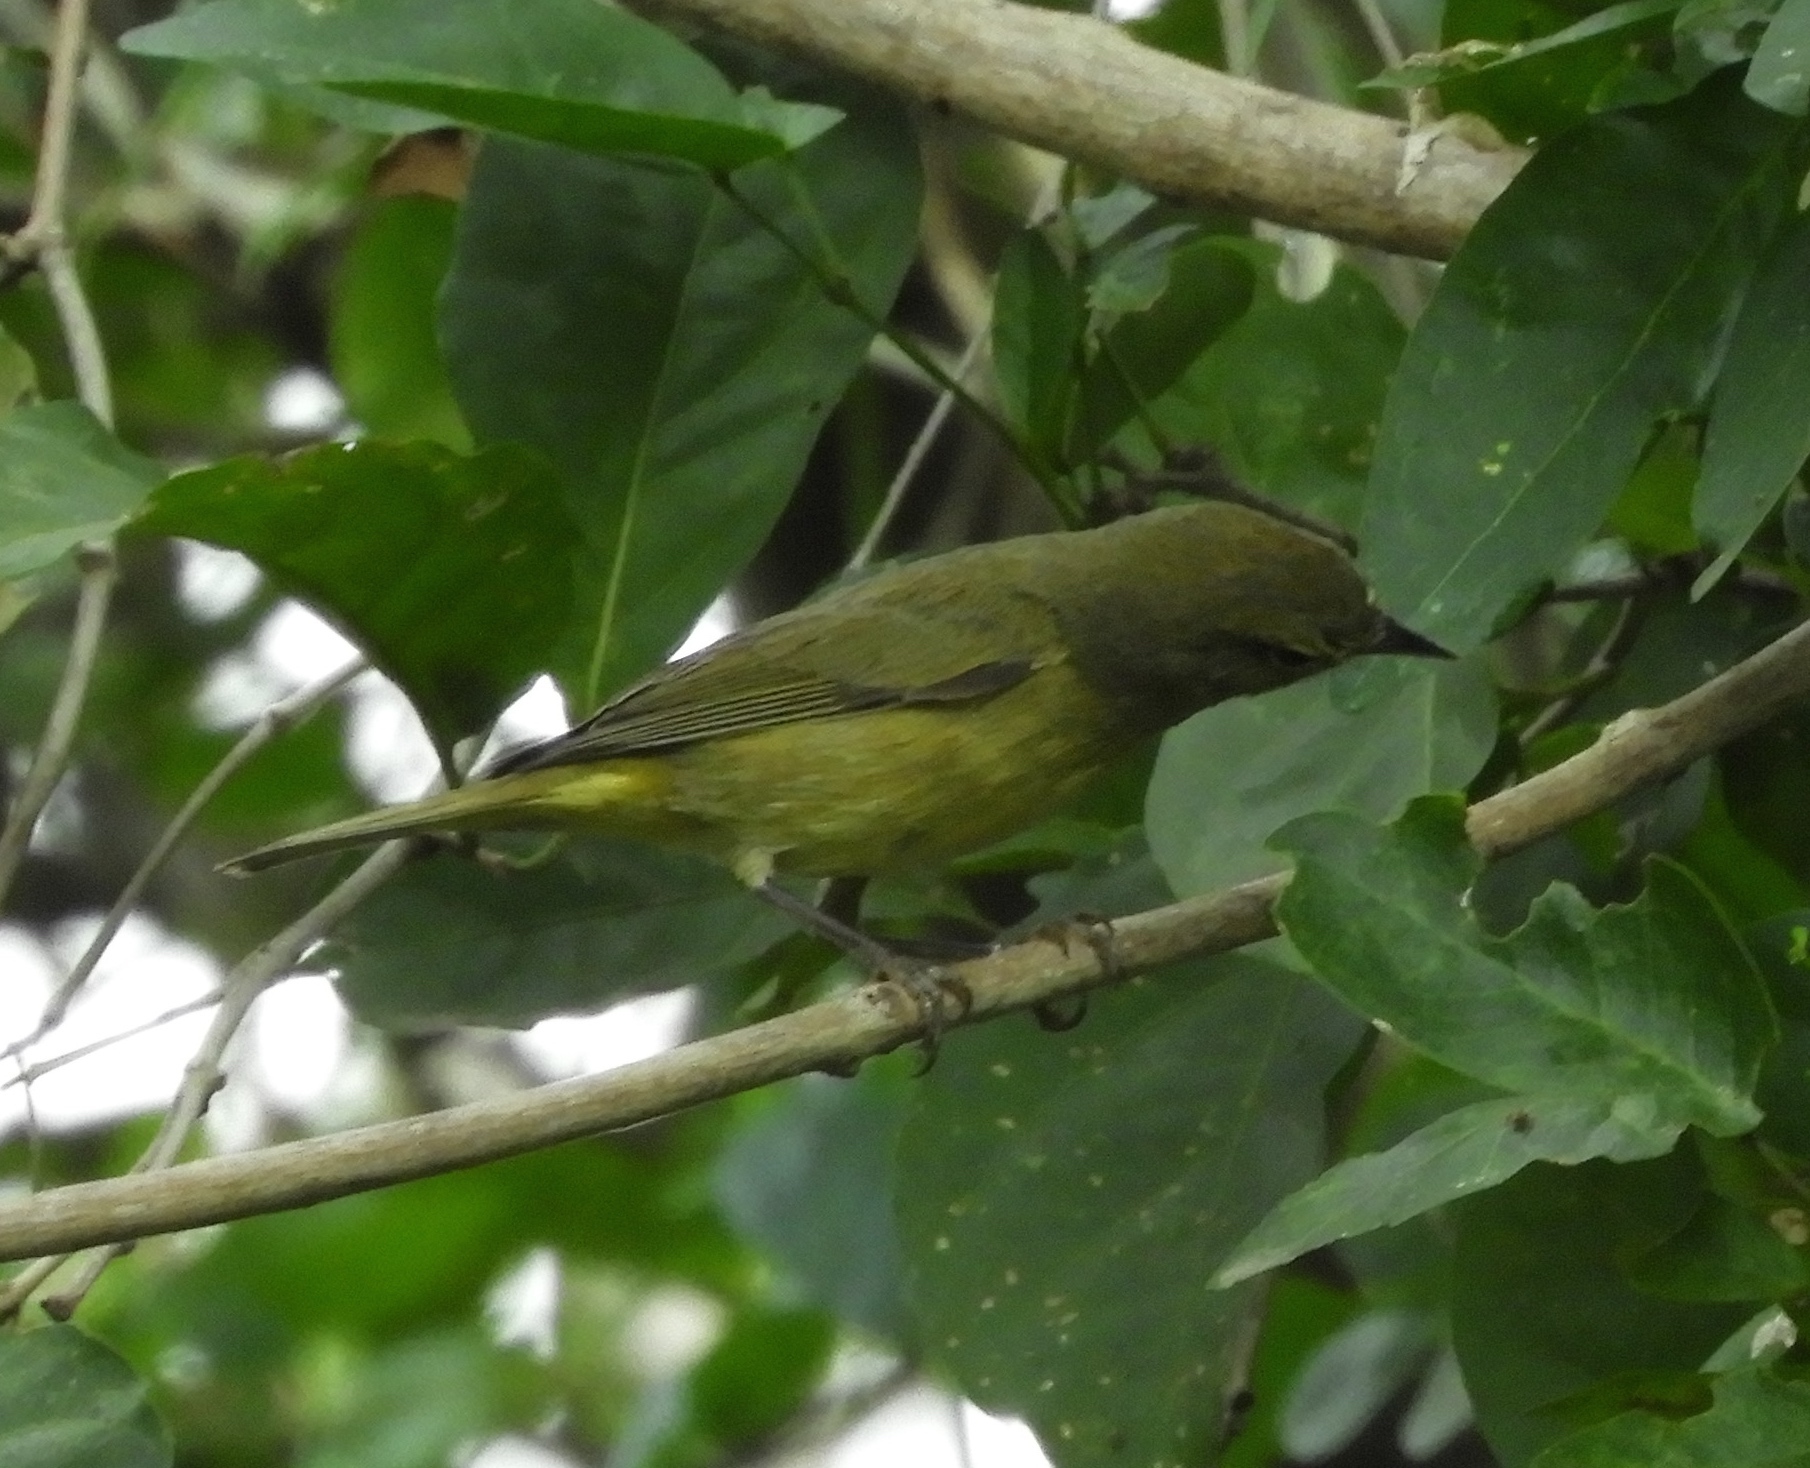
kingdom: Animalia
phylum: Chordata
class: Aves
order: Passeriformes
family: Parulidae
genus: Leiothlypis
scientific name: Leiothlypis celata
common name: Orange-crowned warbler
